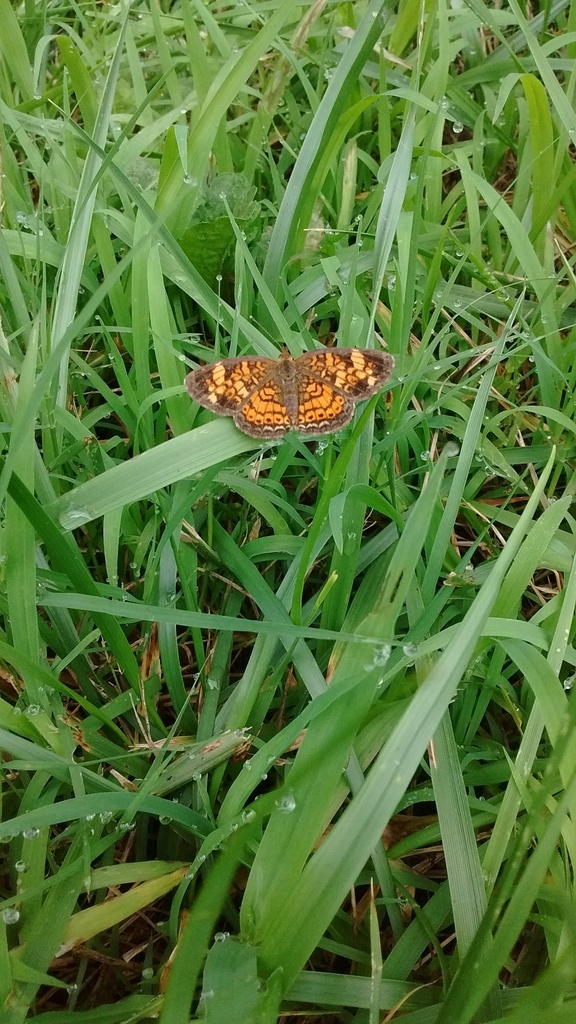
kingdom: Animalia
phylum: Arthropoda
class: Insecta
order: Lepidoptera
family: Nymphalidae
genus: Phyciodes
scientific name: Phyciodes tharos
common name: Pearl crescent
